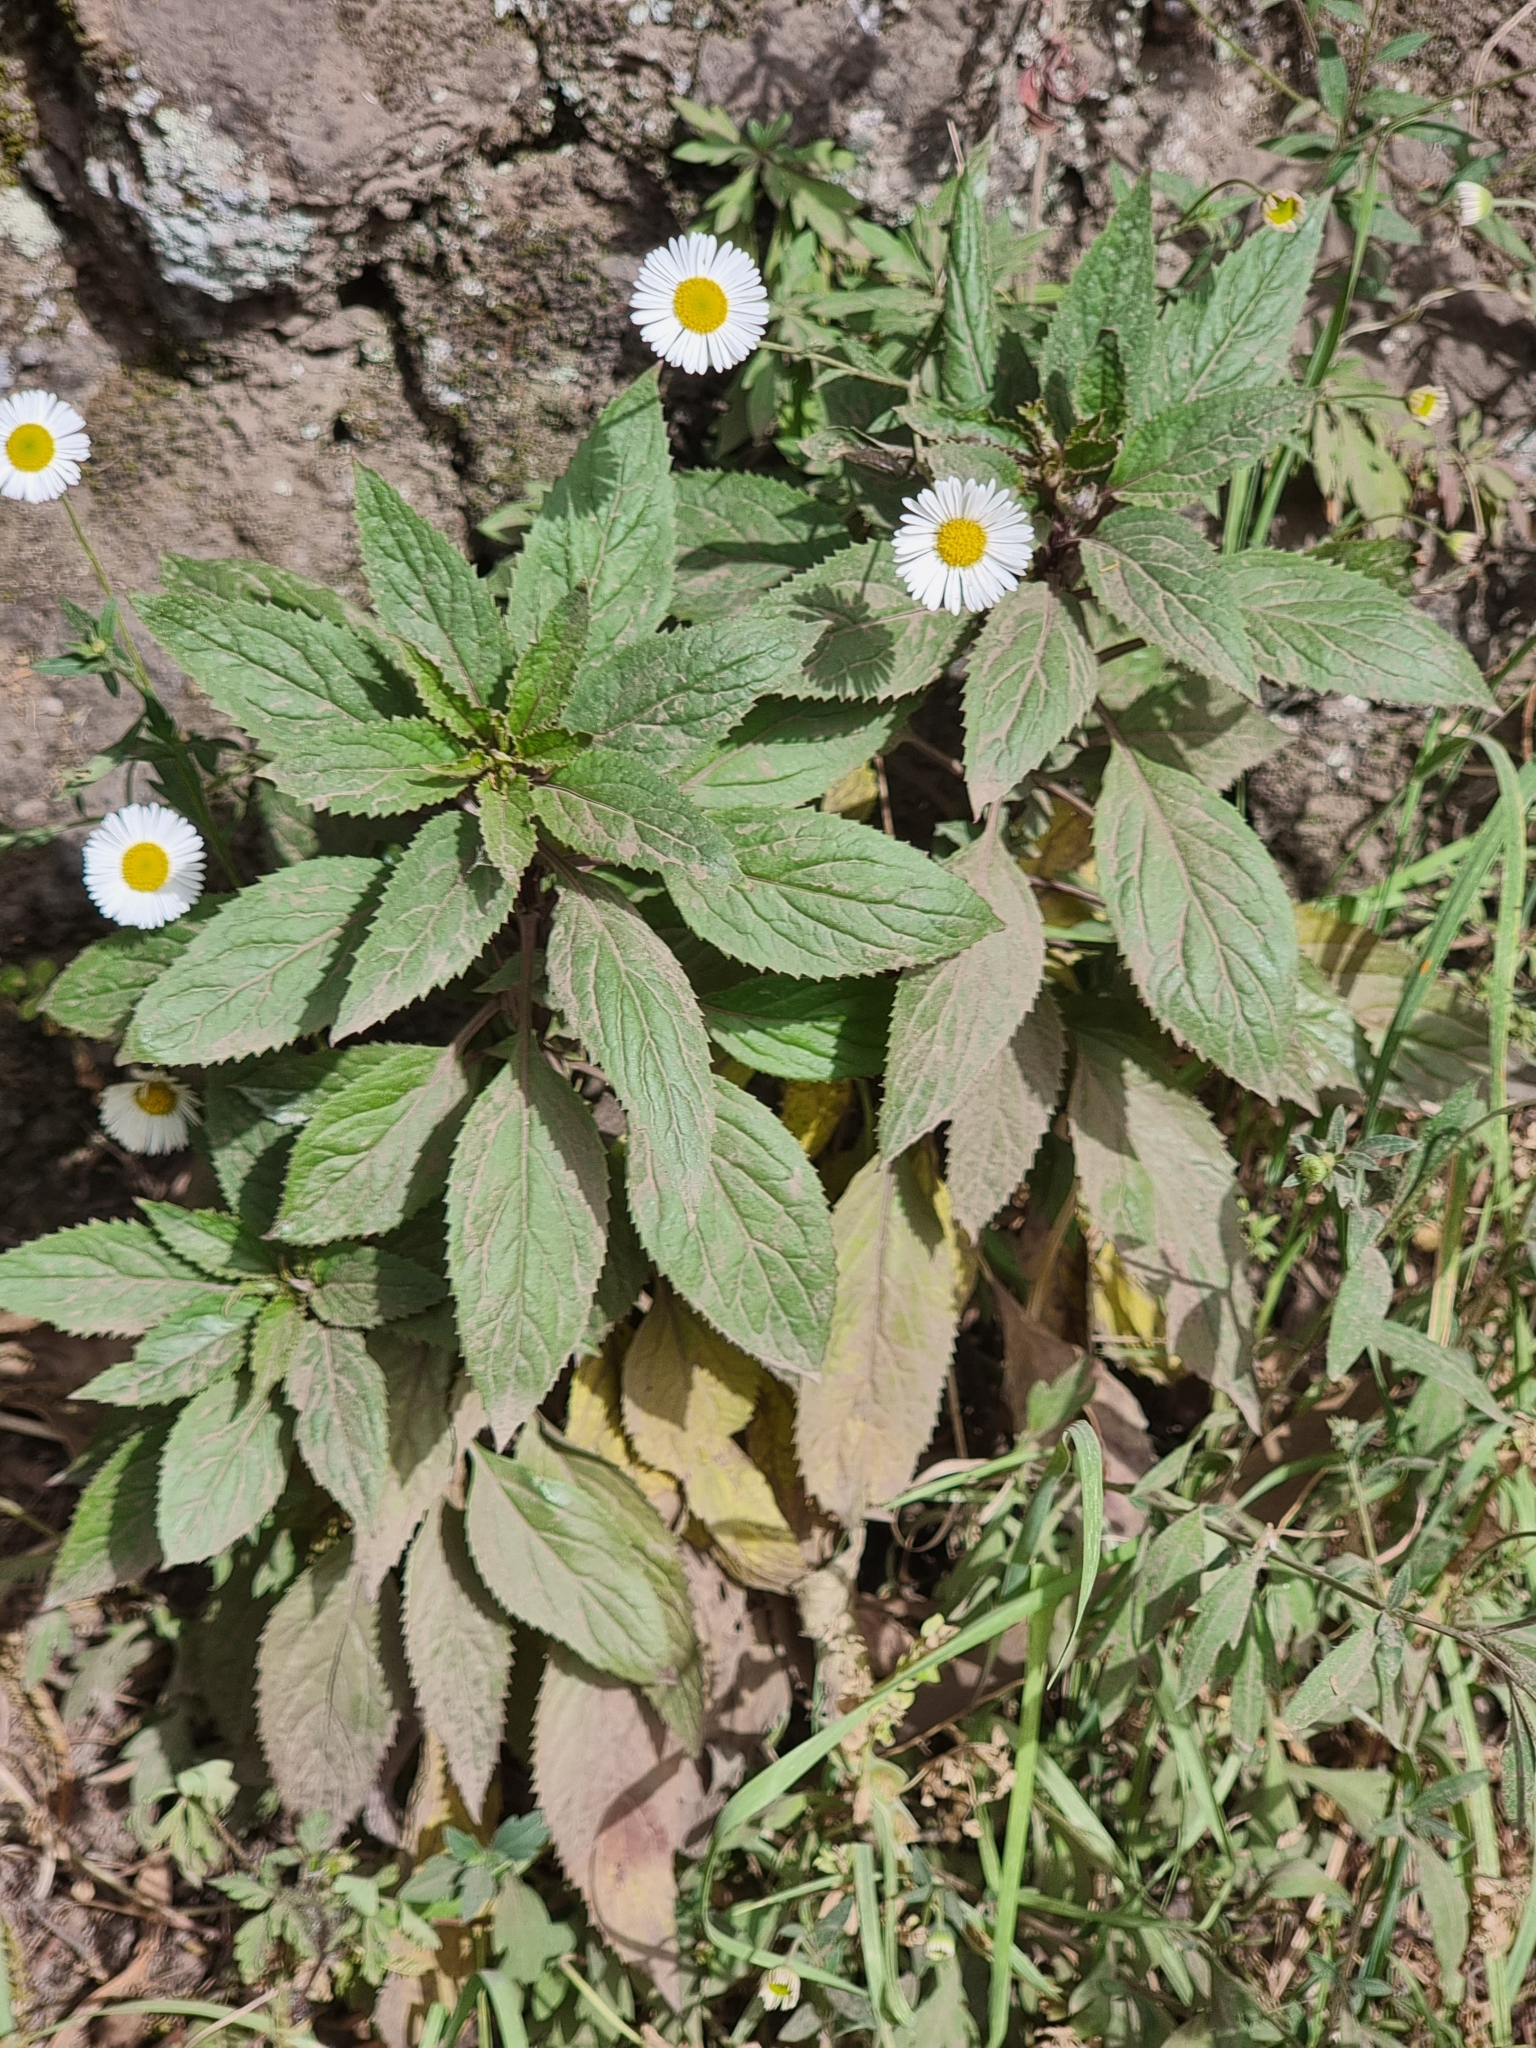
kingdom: Plantae
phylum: Tracheophyta
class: Magnoliopsida
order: Asterales
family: Campanulaceae
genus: Trachelium
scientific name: Trachelium caeruleum
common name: Throatwort
